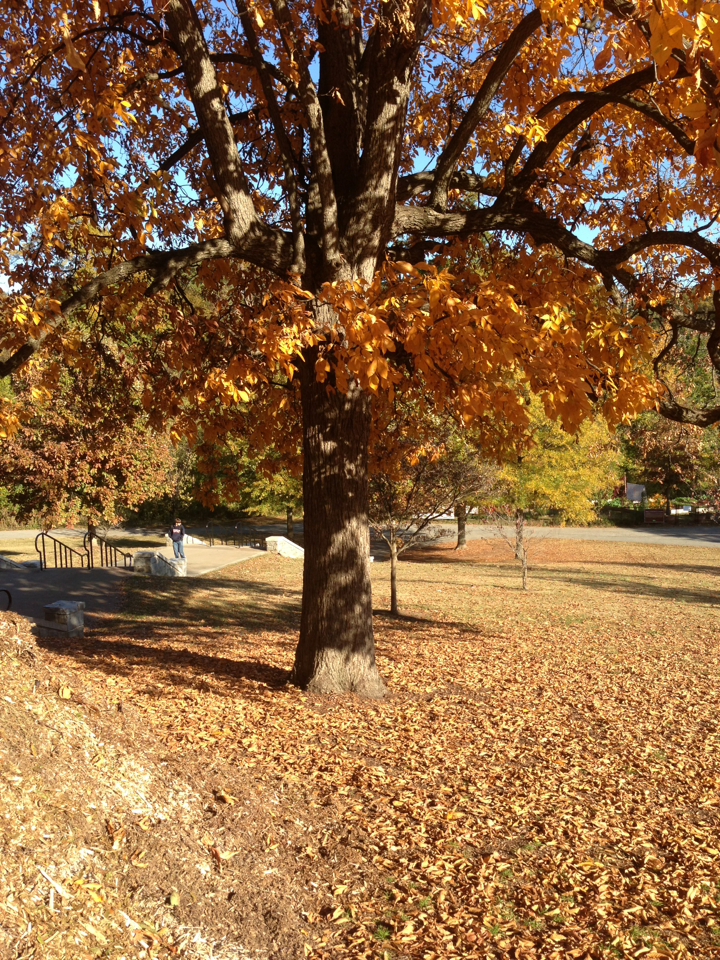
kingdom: Plantae
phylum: Tracheophyta
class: Magnoliopsida
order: Fagales
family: Juglandaceae
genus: Carya
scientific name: Carya glabra
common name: Pignut hickory
